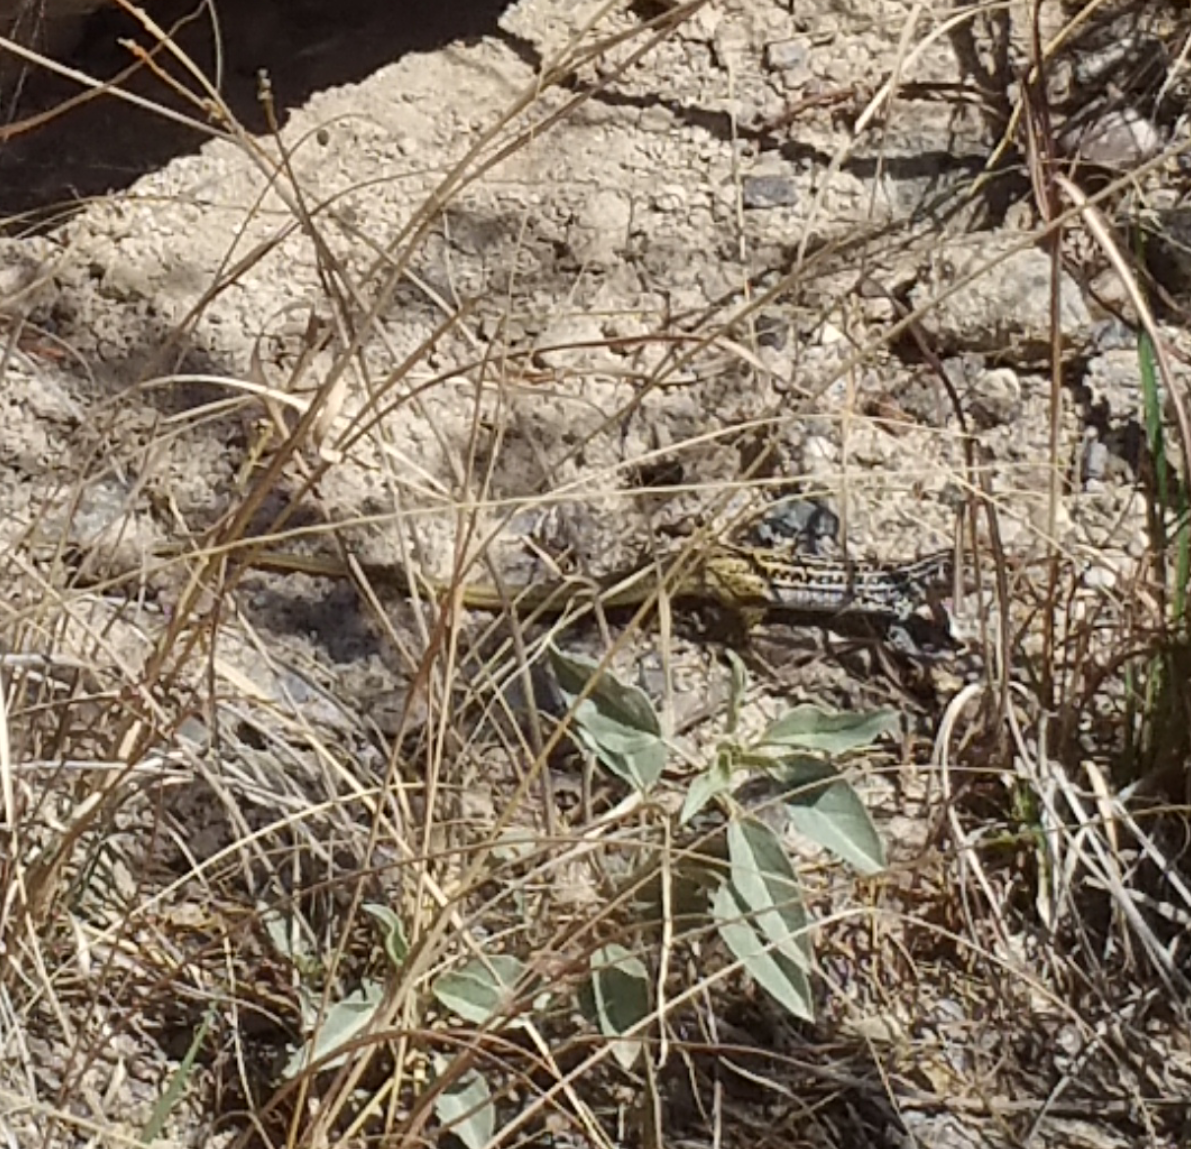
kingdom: Animalia
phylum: Chordata
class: Squamata
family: Teiidae
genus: Aspidoscelis
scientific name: Aspidoscelis scalaris
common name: Rusty-rumped whiptail
